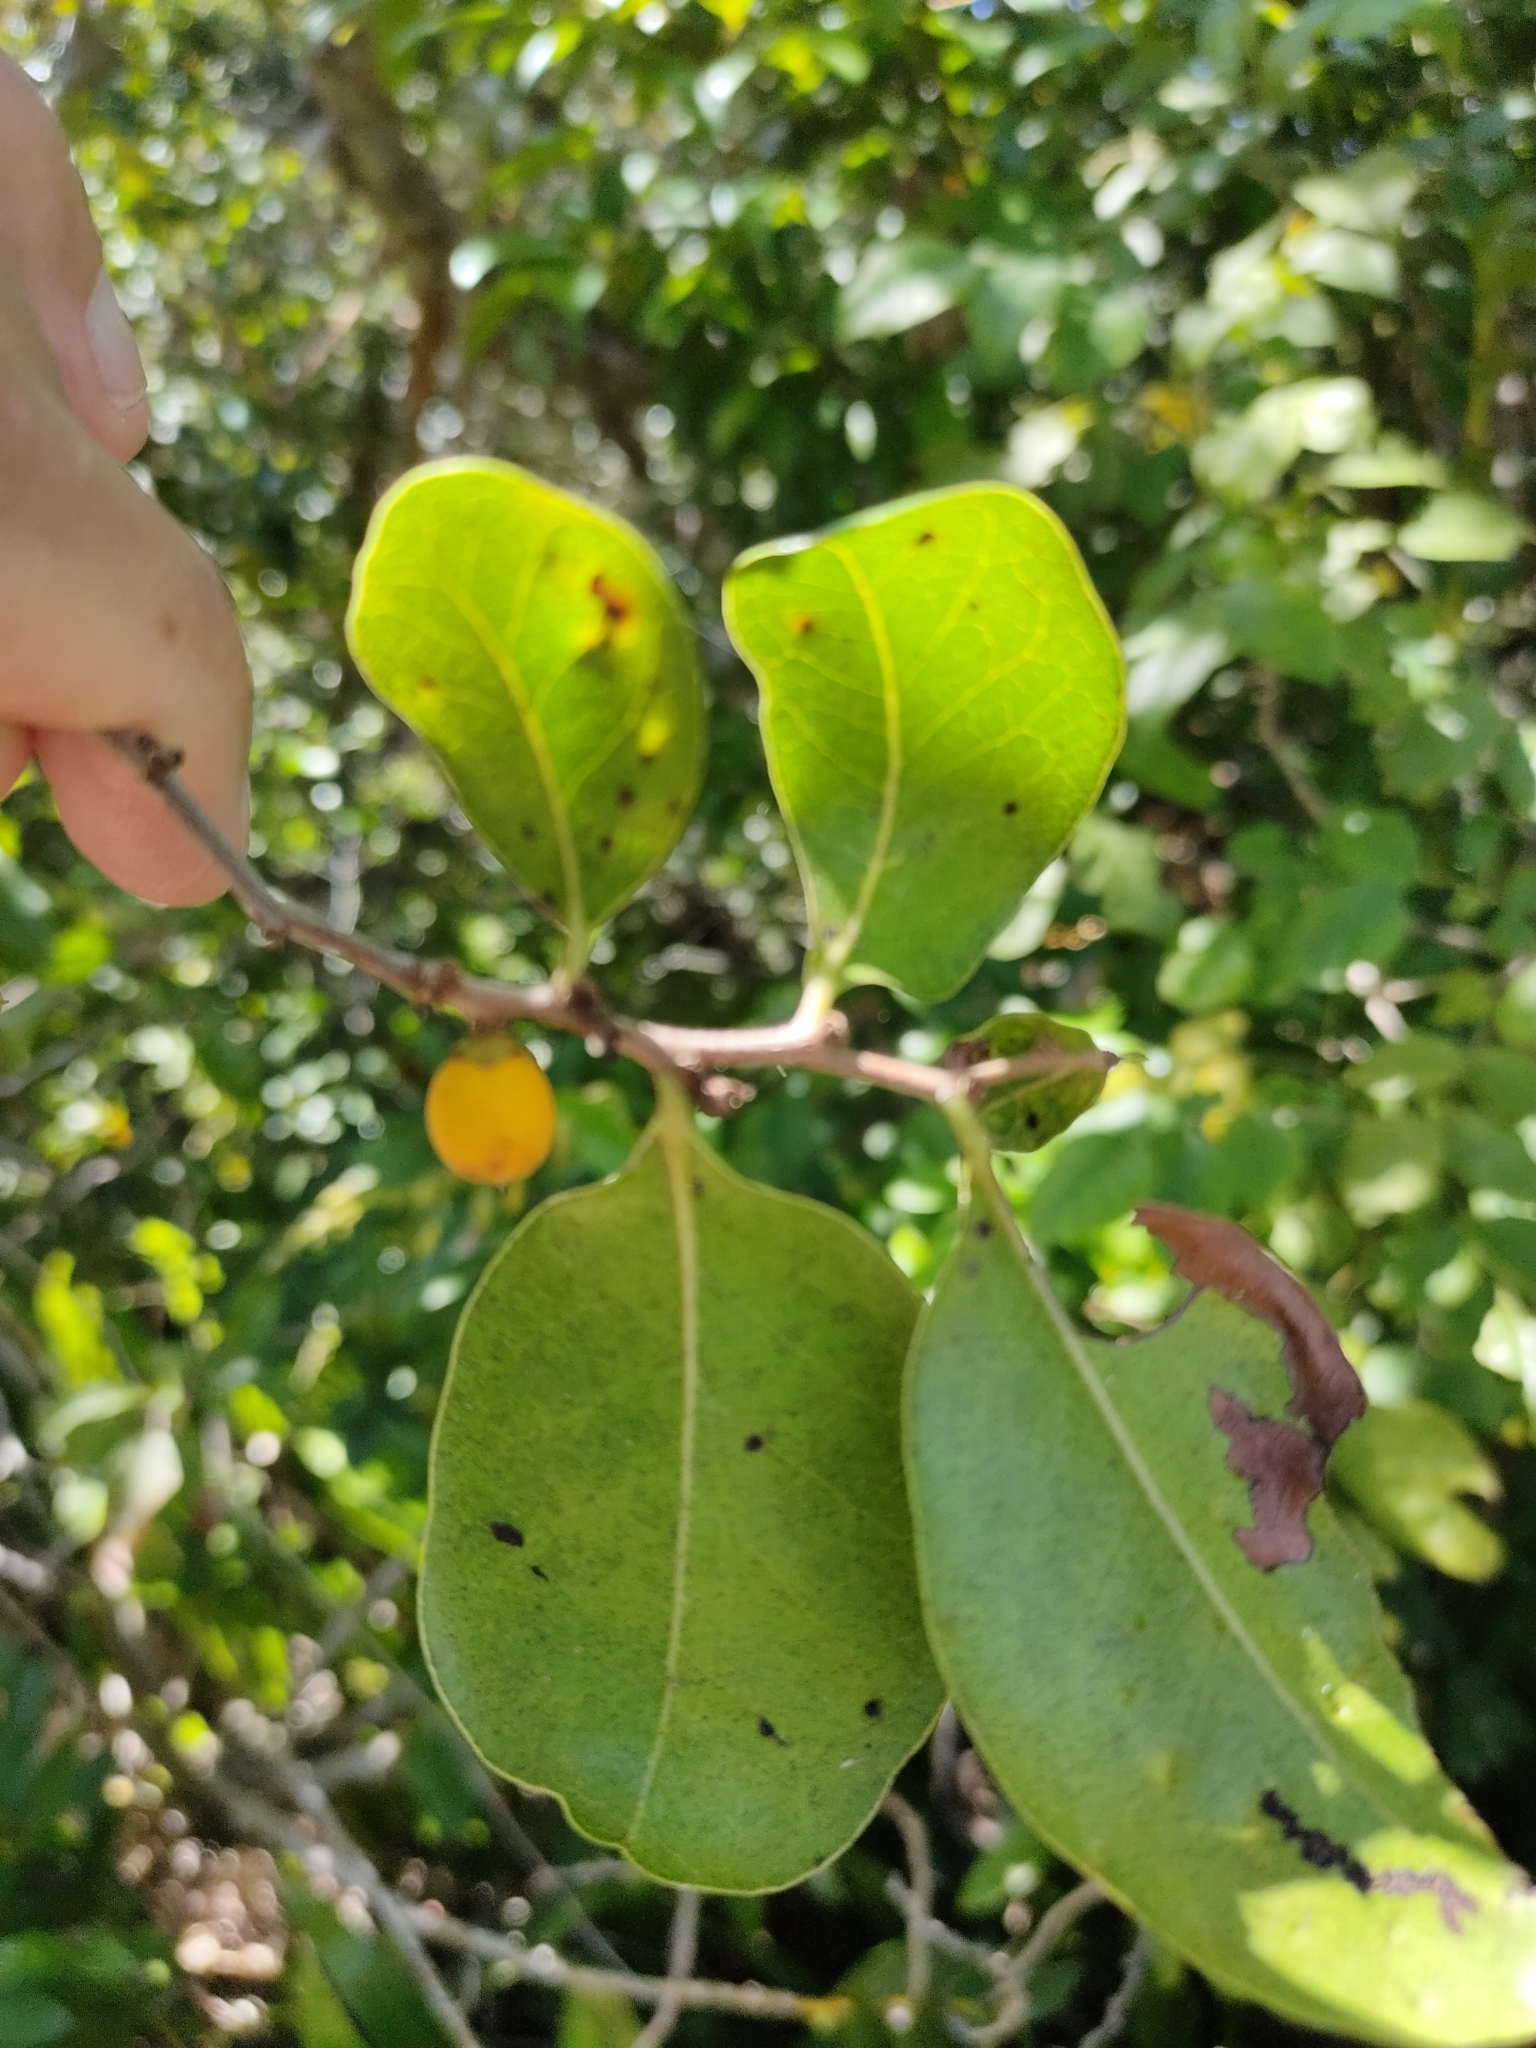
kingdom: Plantae
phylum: Tracheophyta
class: Magnoliopsida
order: Ericales
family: Ebenaceae
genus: Diospyros
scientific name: Diospyros geminata
